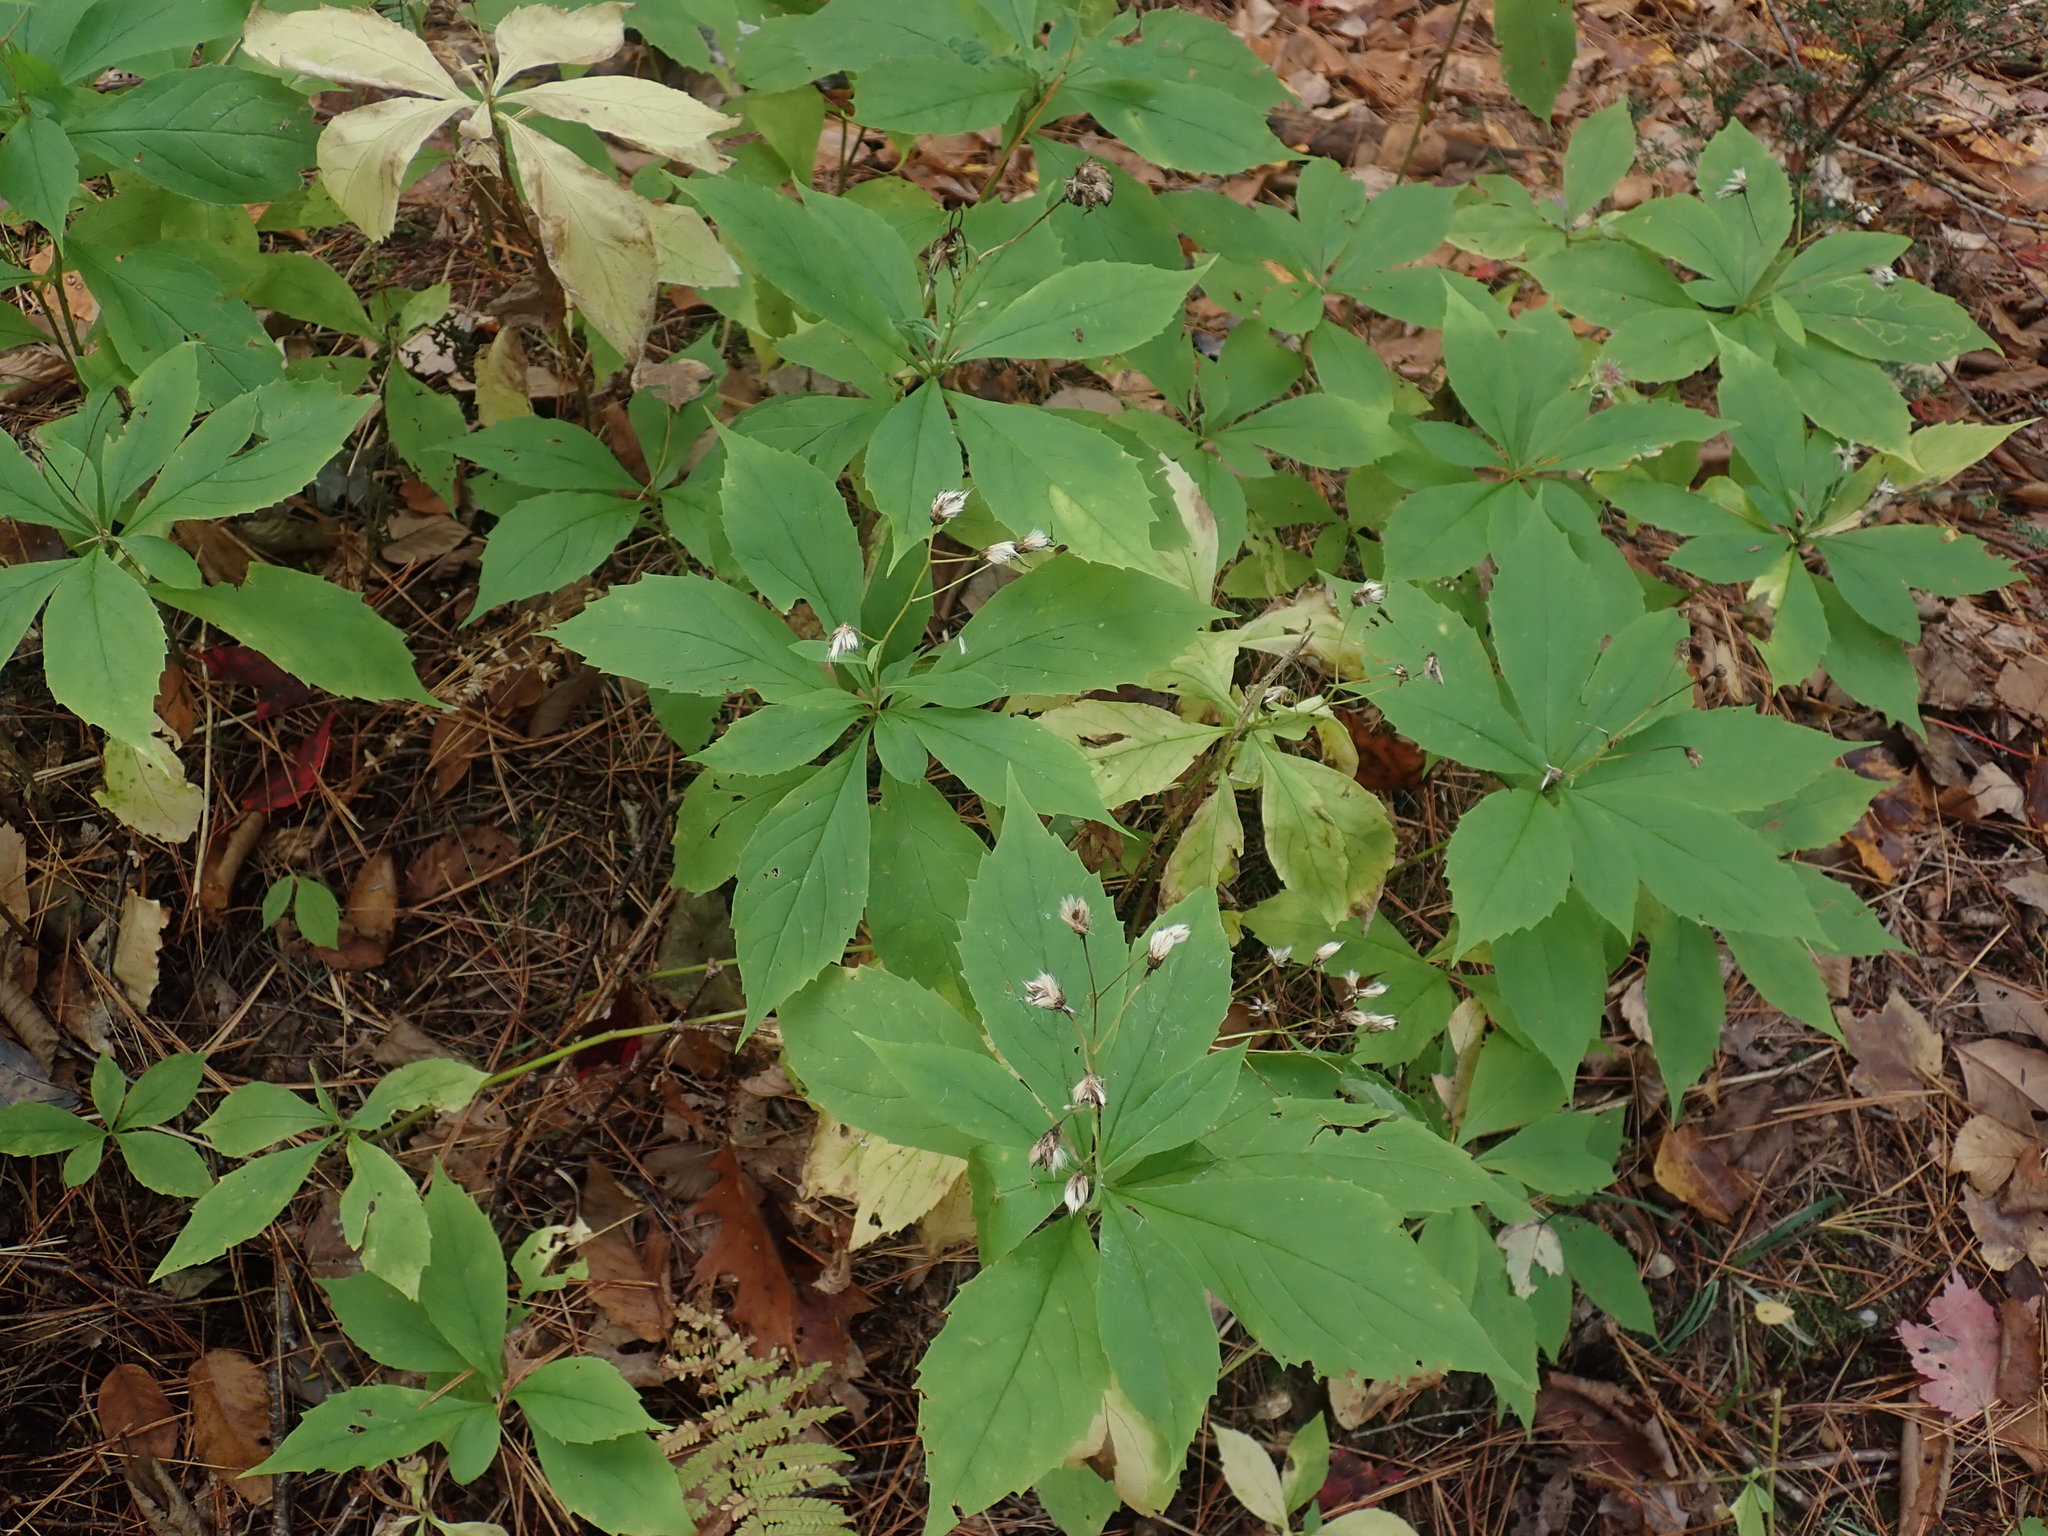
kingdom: Plantae
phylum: Tracheophyta
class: Magnoliopsida
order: Asterales
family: Asteraceae
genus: Oclemena
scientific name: Oclemena acuminata
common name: Mountain aster
